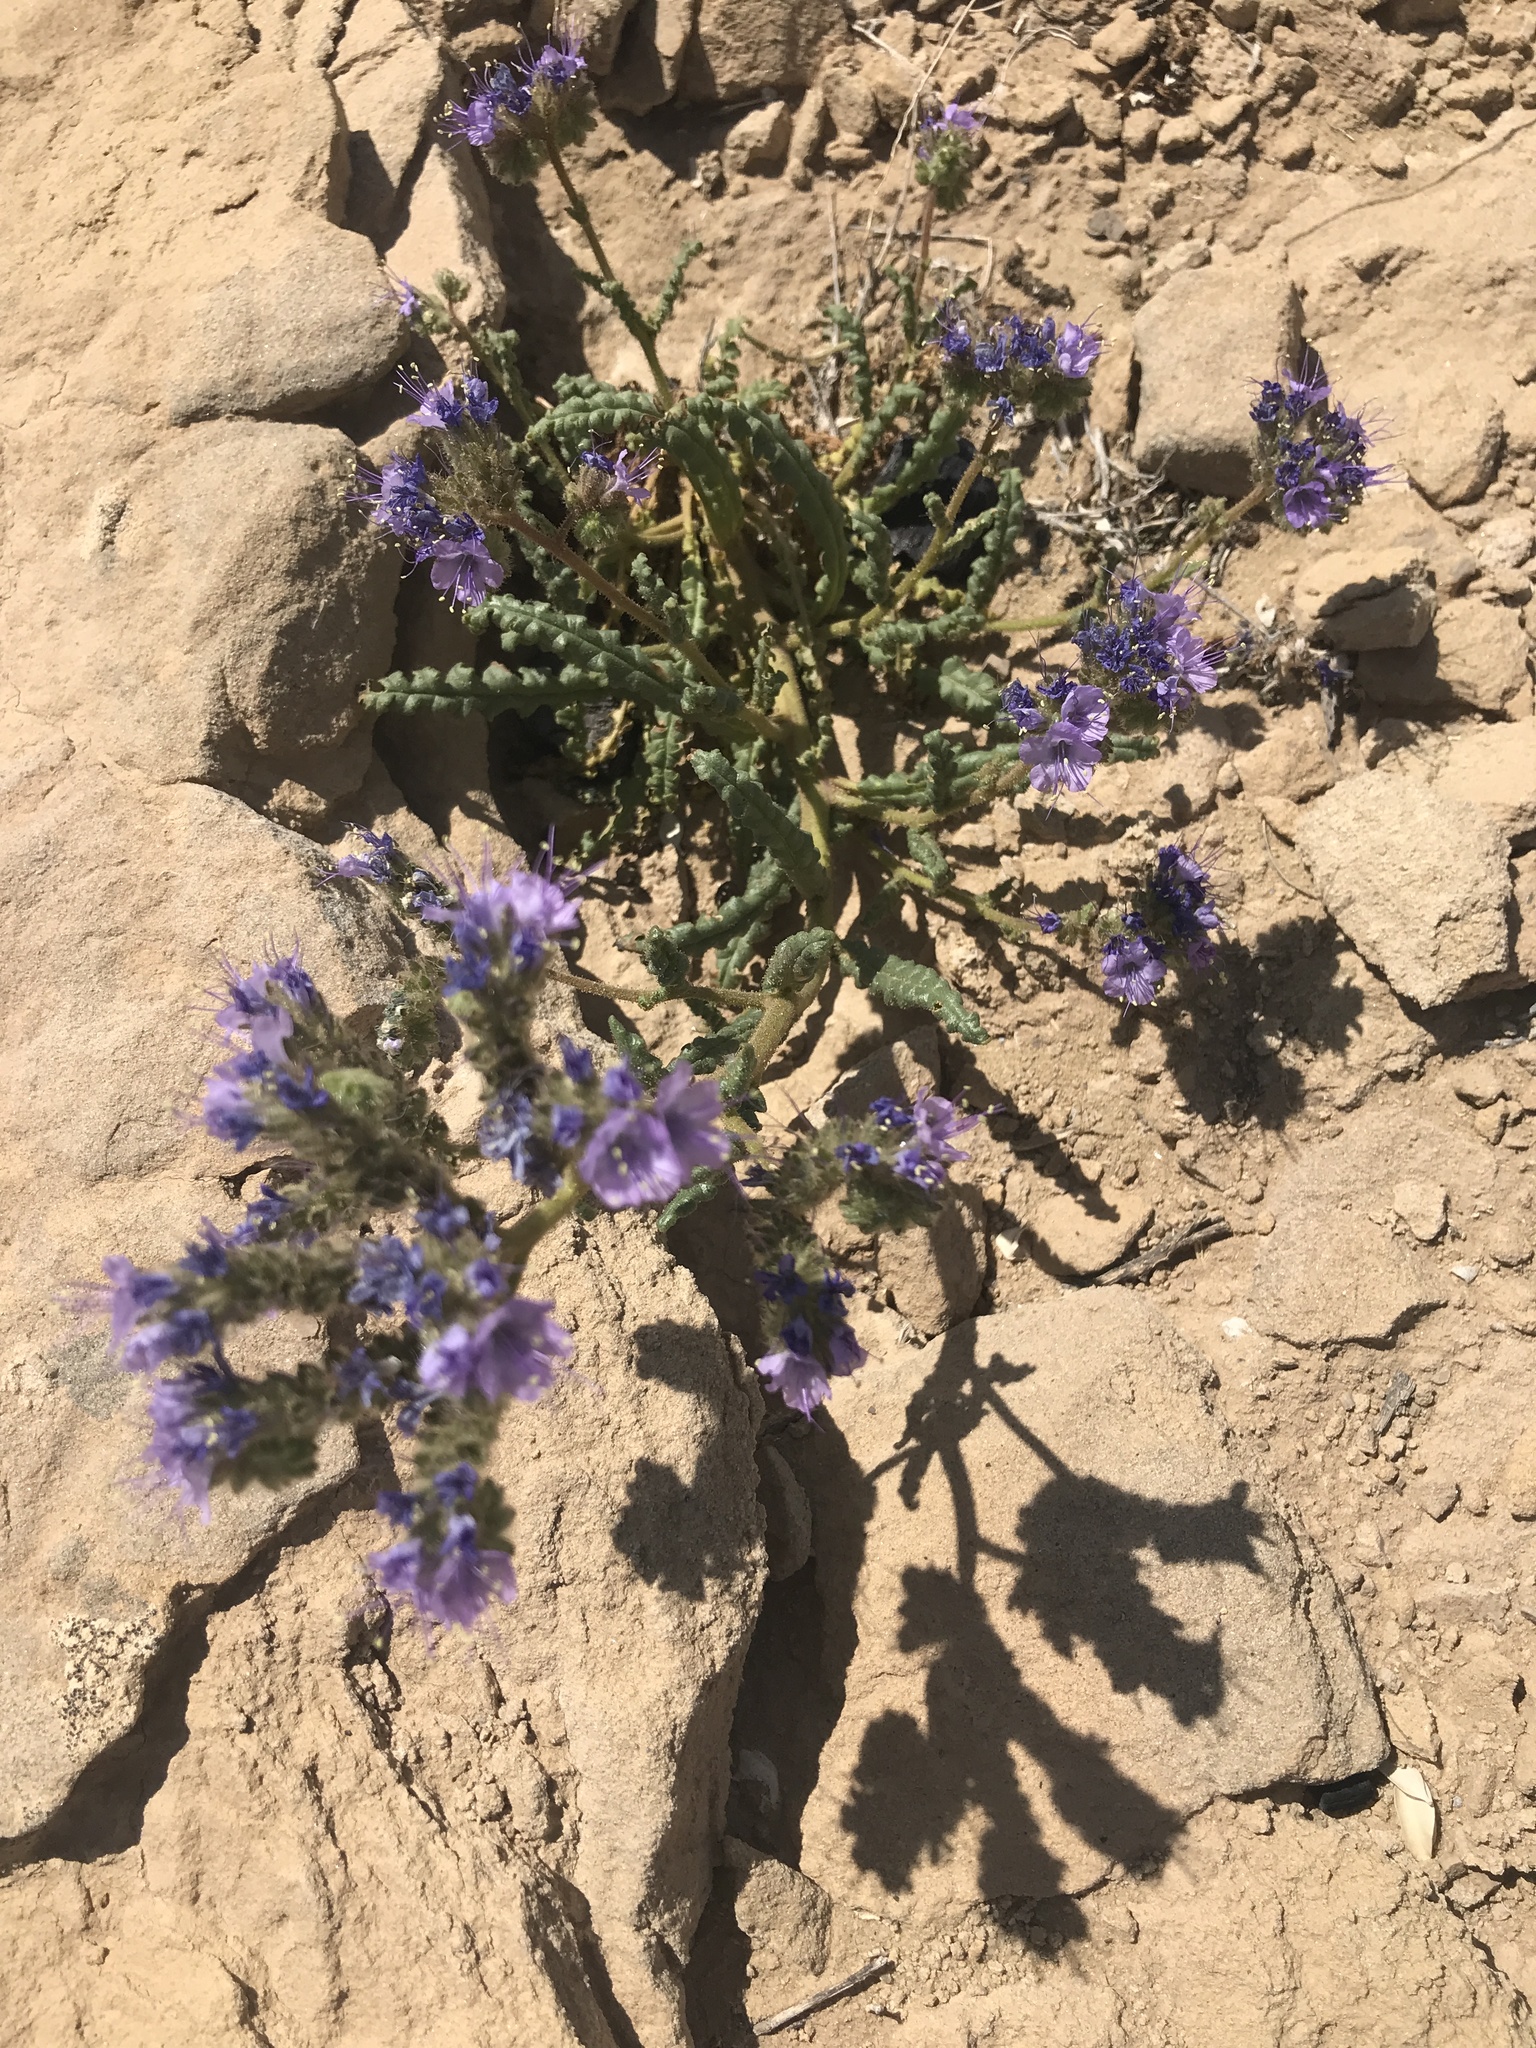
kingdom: Plantae
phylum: Tracheophyta
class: Magnoliopsida
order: Boraginales
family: Hydrophyllaceae
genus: Phacelia
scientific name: Phacelia crenulata
